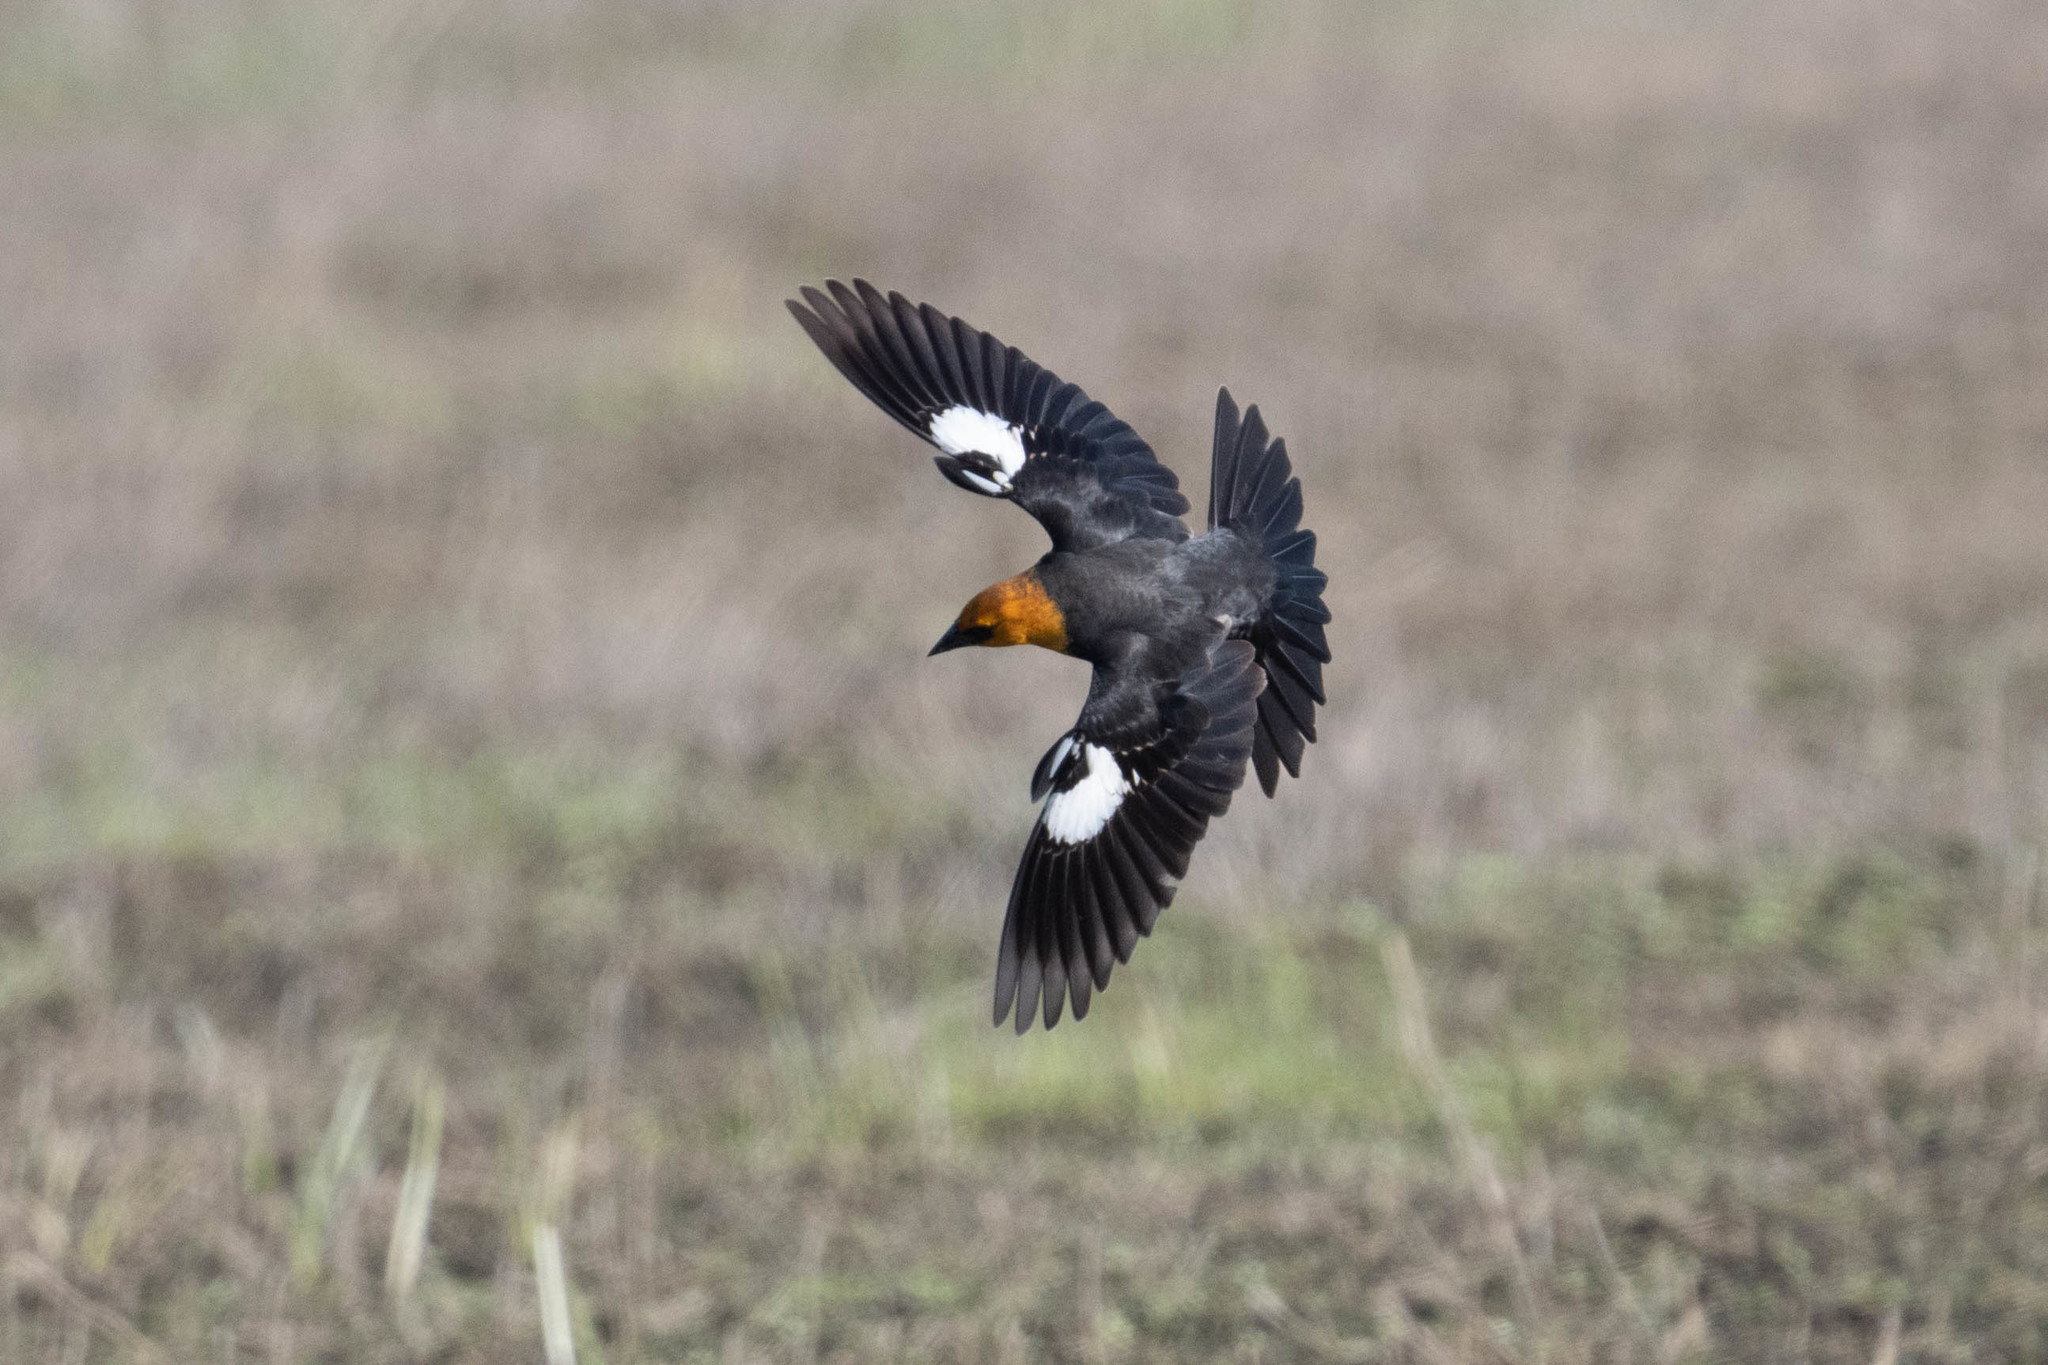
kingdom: Animalia
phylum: Chordata
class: Aves
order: Passeriformes
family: Icteridae
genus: Xanthocephalus
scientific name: Xanthocephalus xanthocephalus
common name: Yellow-headed blackbird
